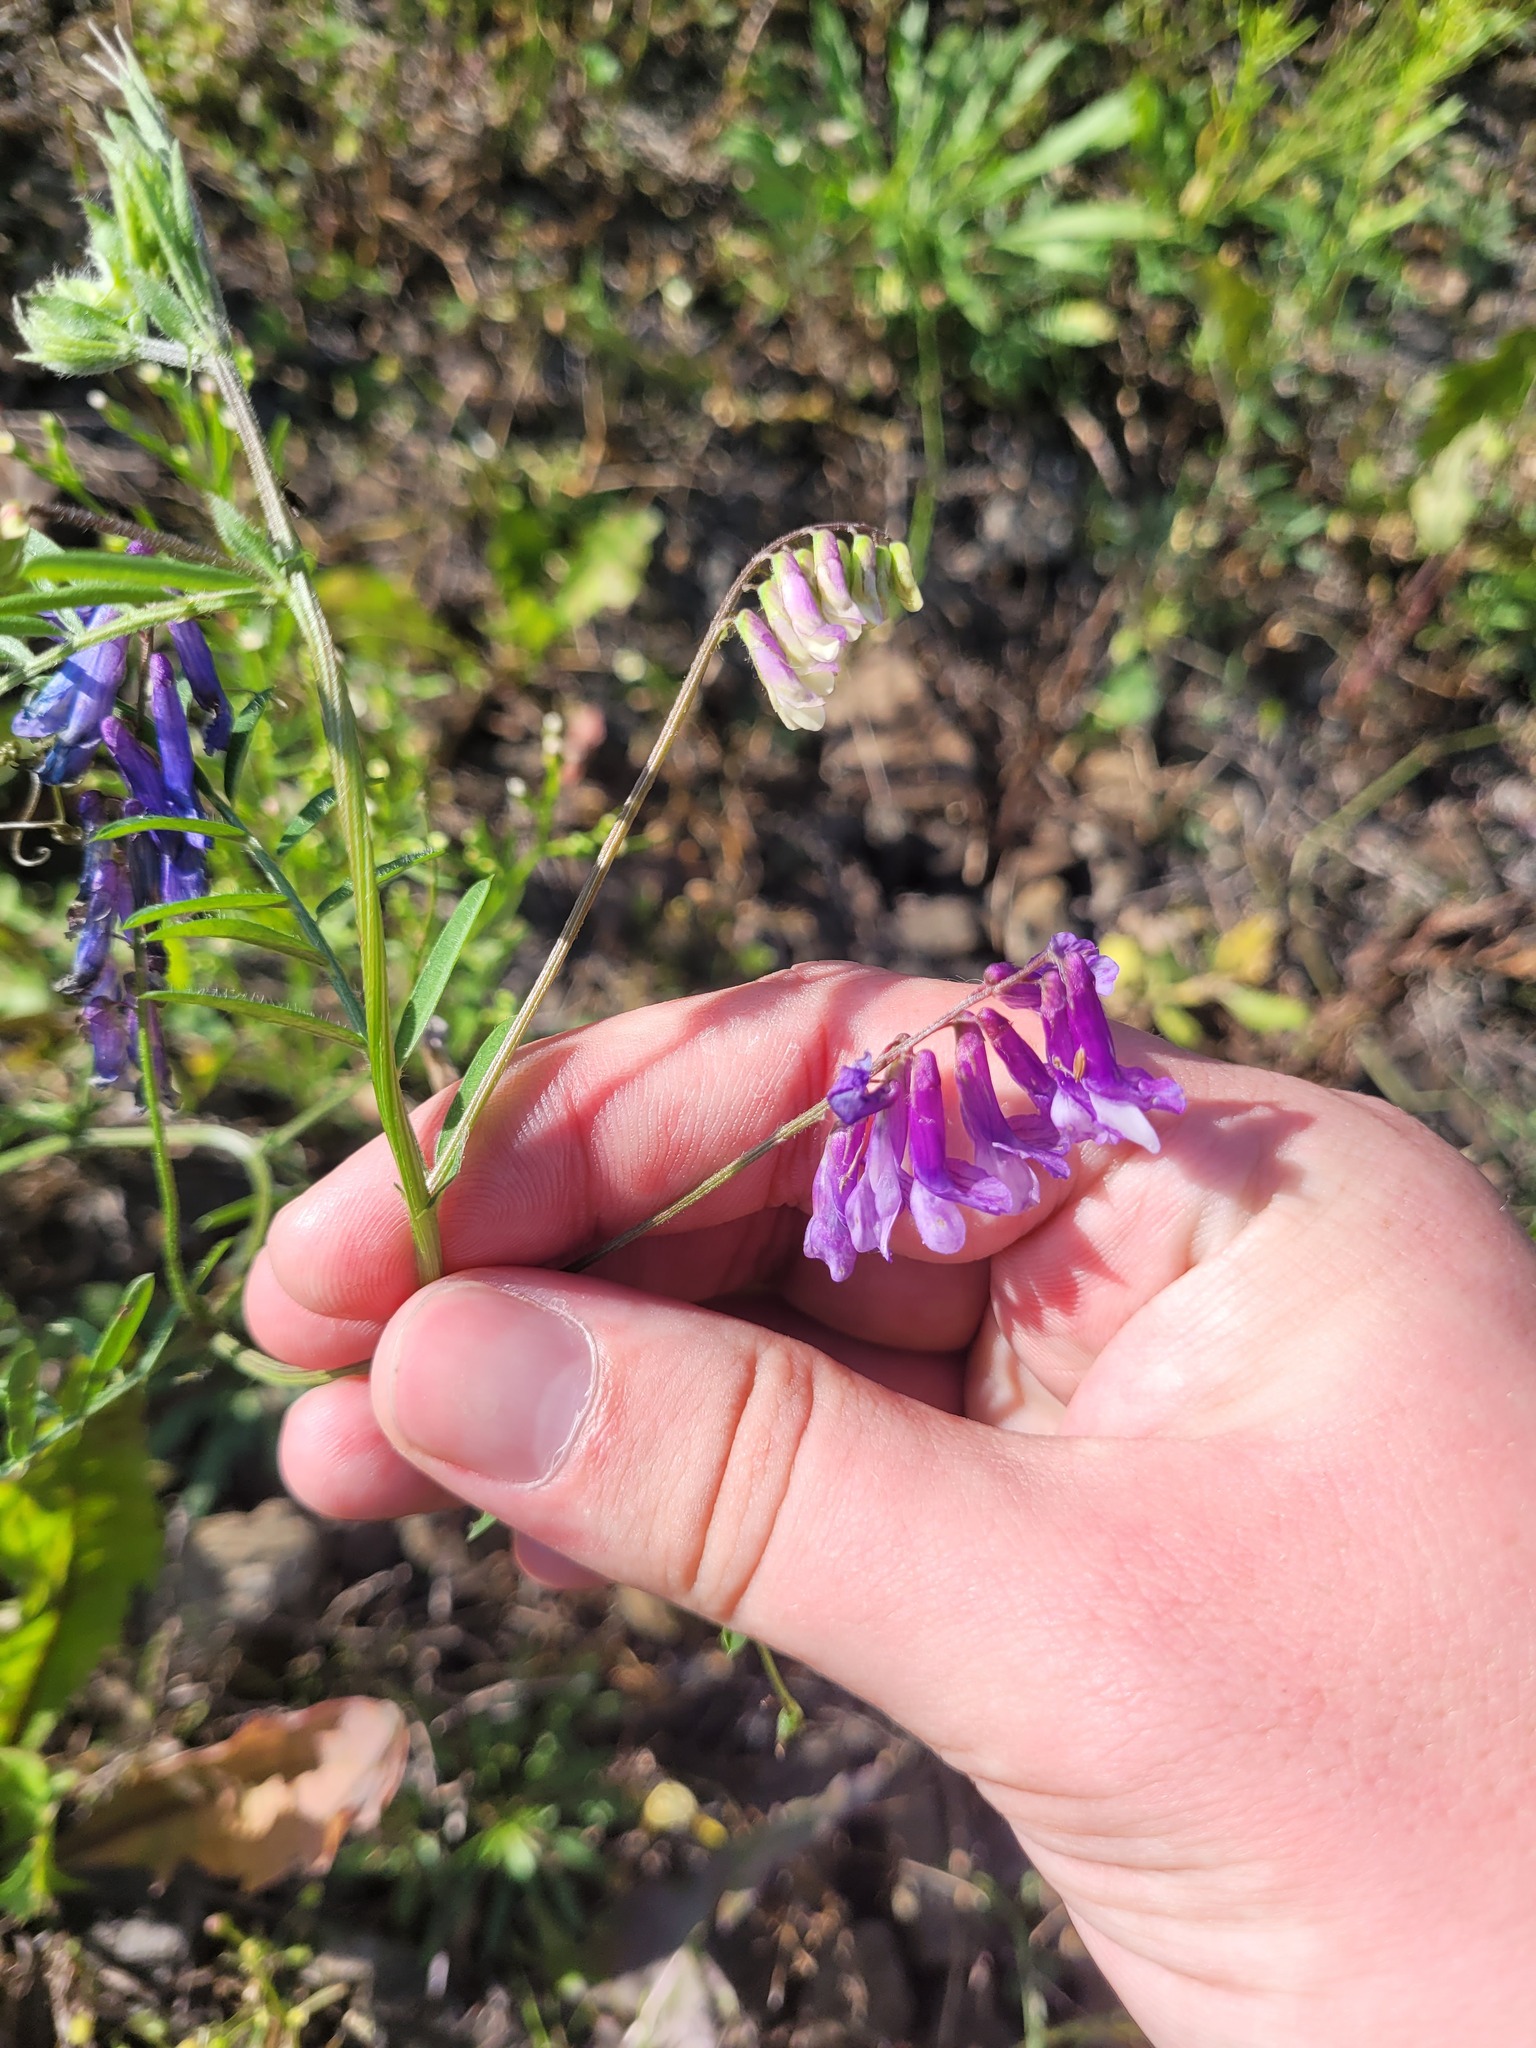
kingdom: Plantae
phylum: Tracheophyta
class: Magnoliopsida
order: Fabales
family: Fabaceae
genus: Vicia
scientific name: Vicia villosa
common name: Fodder vetch
